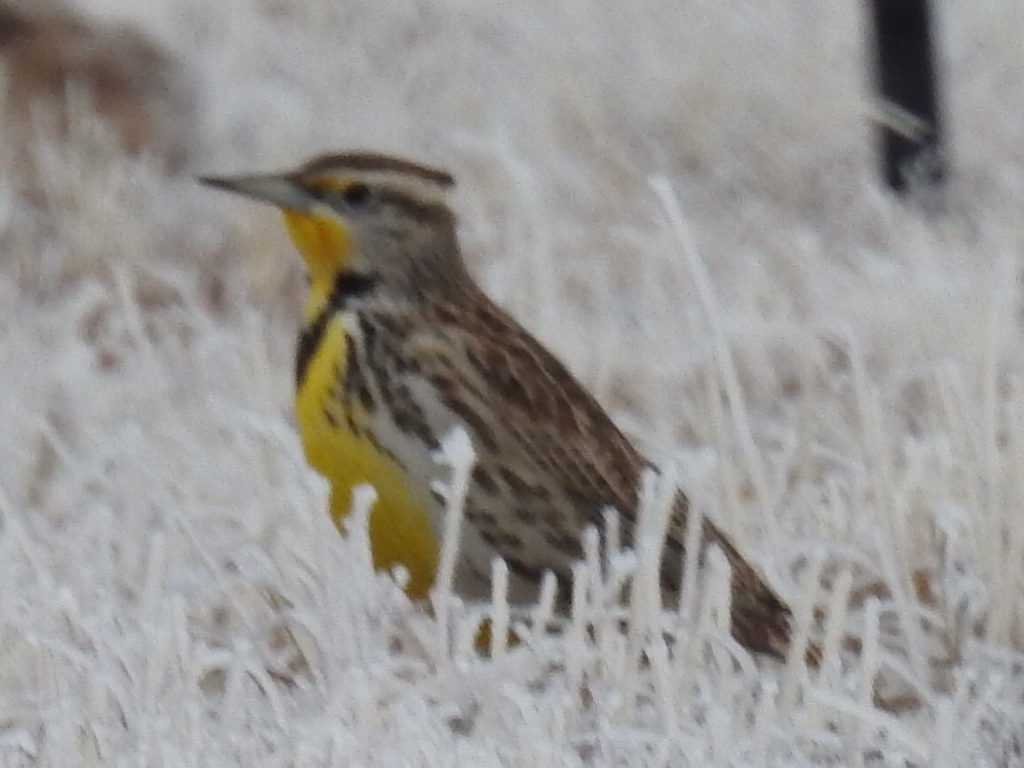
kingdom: Animalia
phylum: Chordata
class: Aves
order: Passeriformes
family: Icteridae
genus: Sturnella
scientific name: Sturnella magna
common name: Eastern meadowlark
